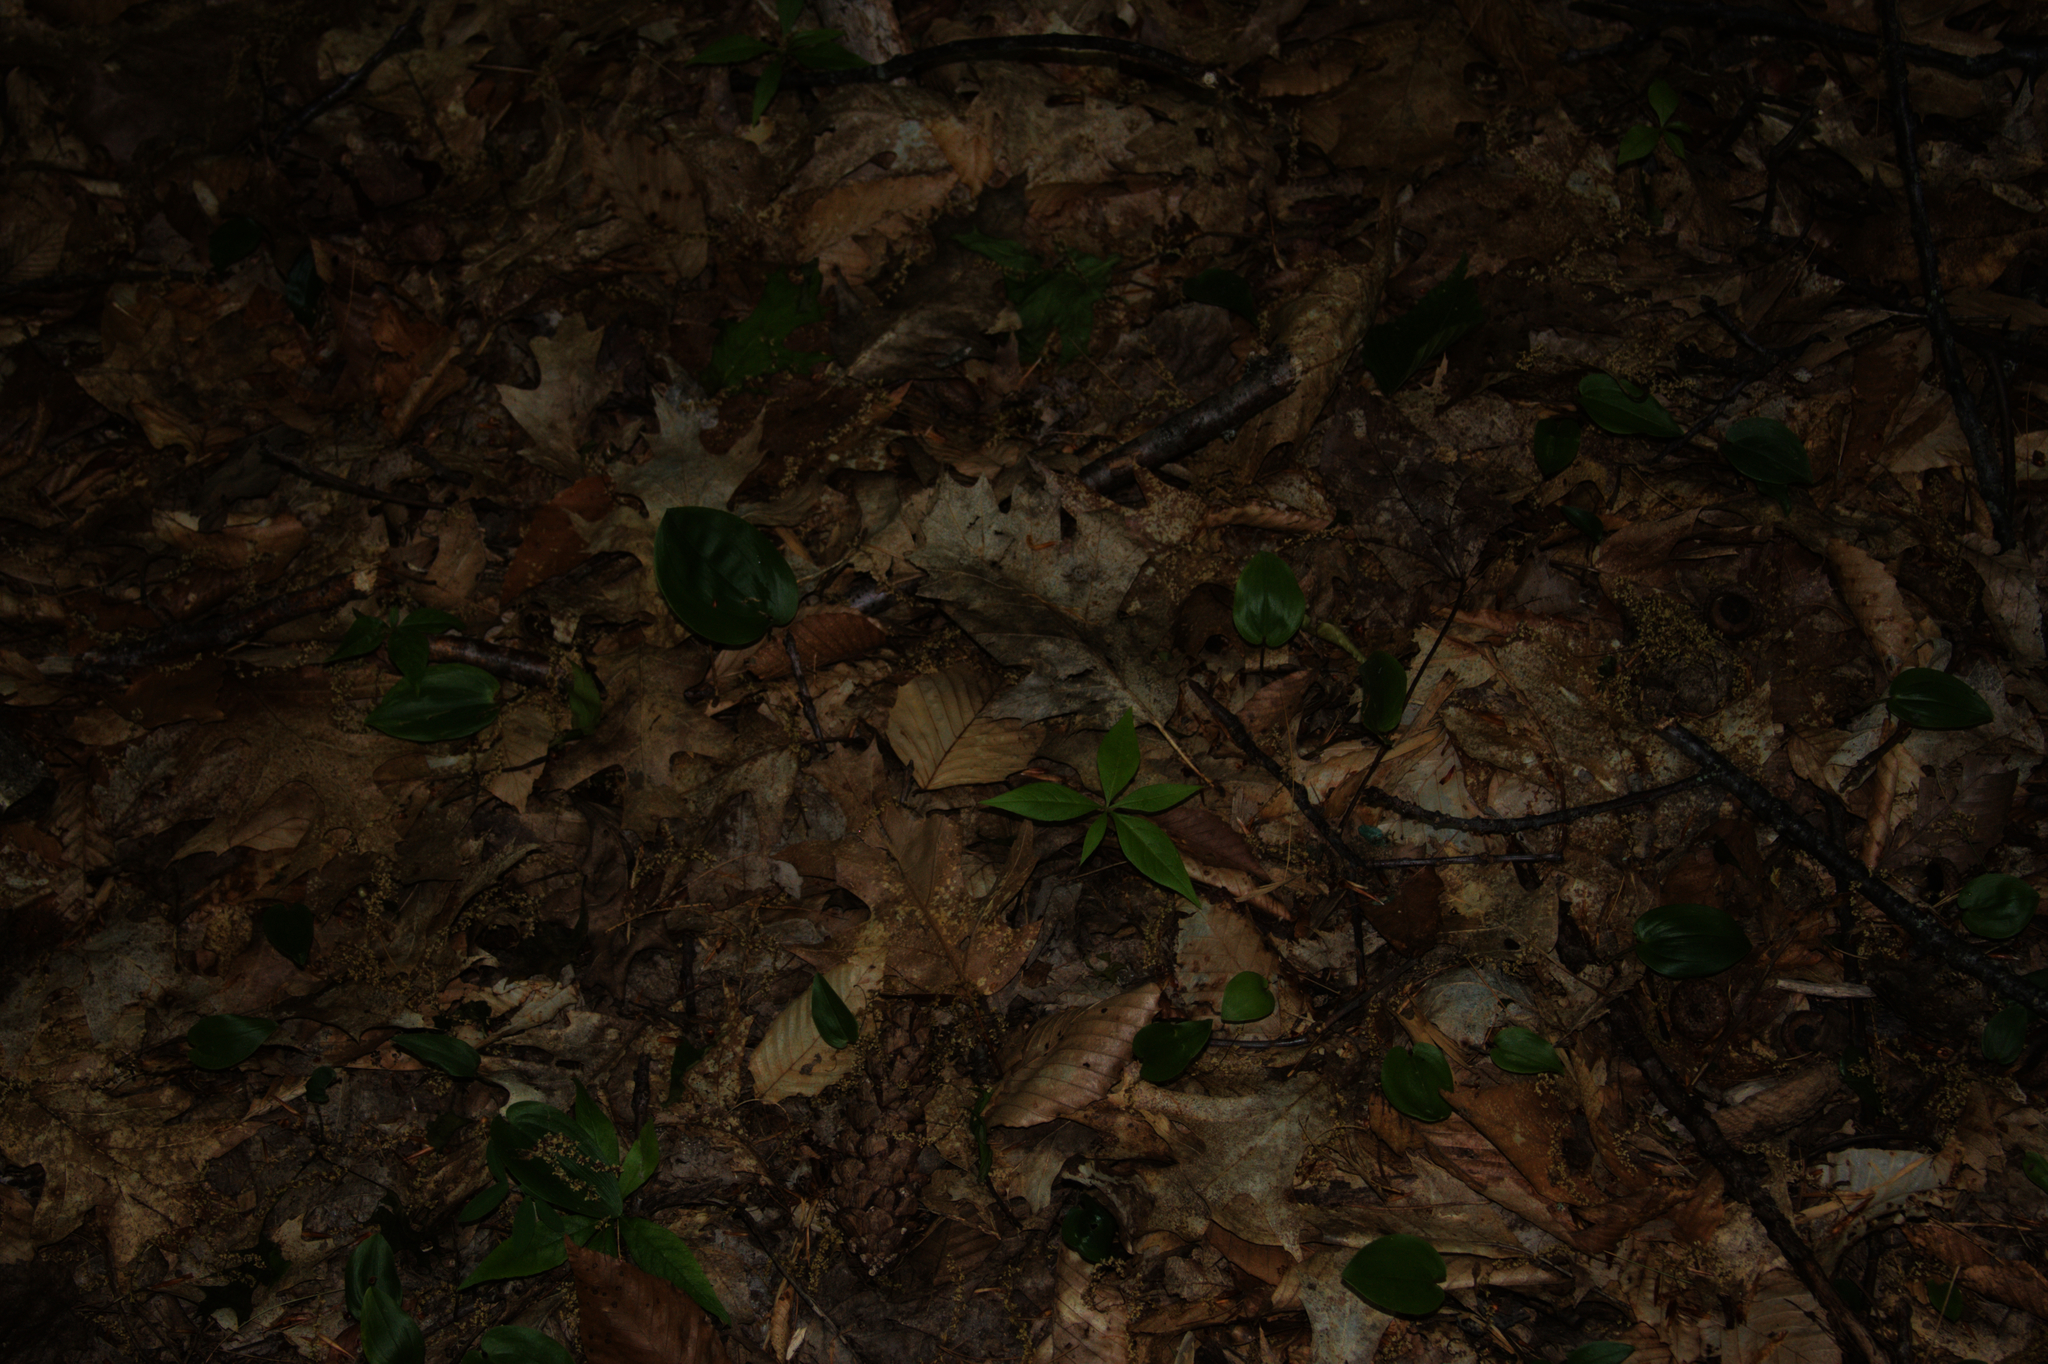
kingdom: Plantae
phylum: Tracheophyta
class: Liliopsida
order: Asparagales
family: Asparagaceae
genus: Maianthemum
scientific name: Maianthemum canadense
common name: False lily-of-the-valley
